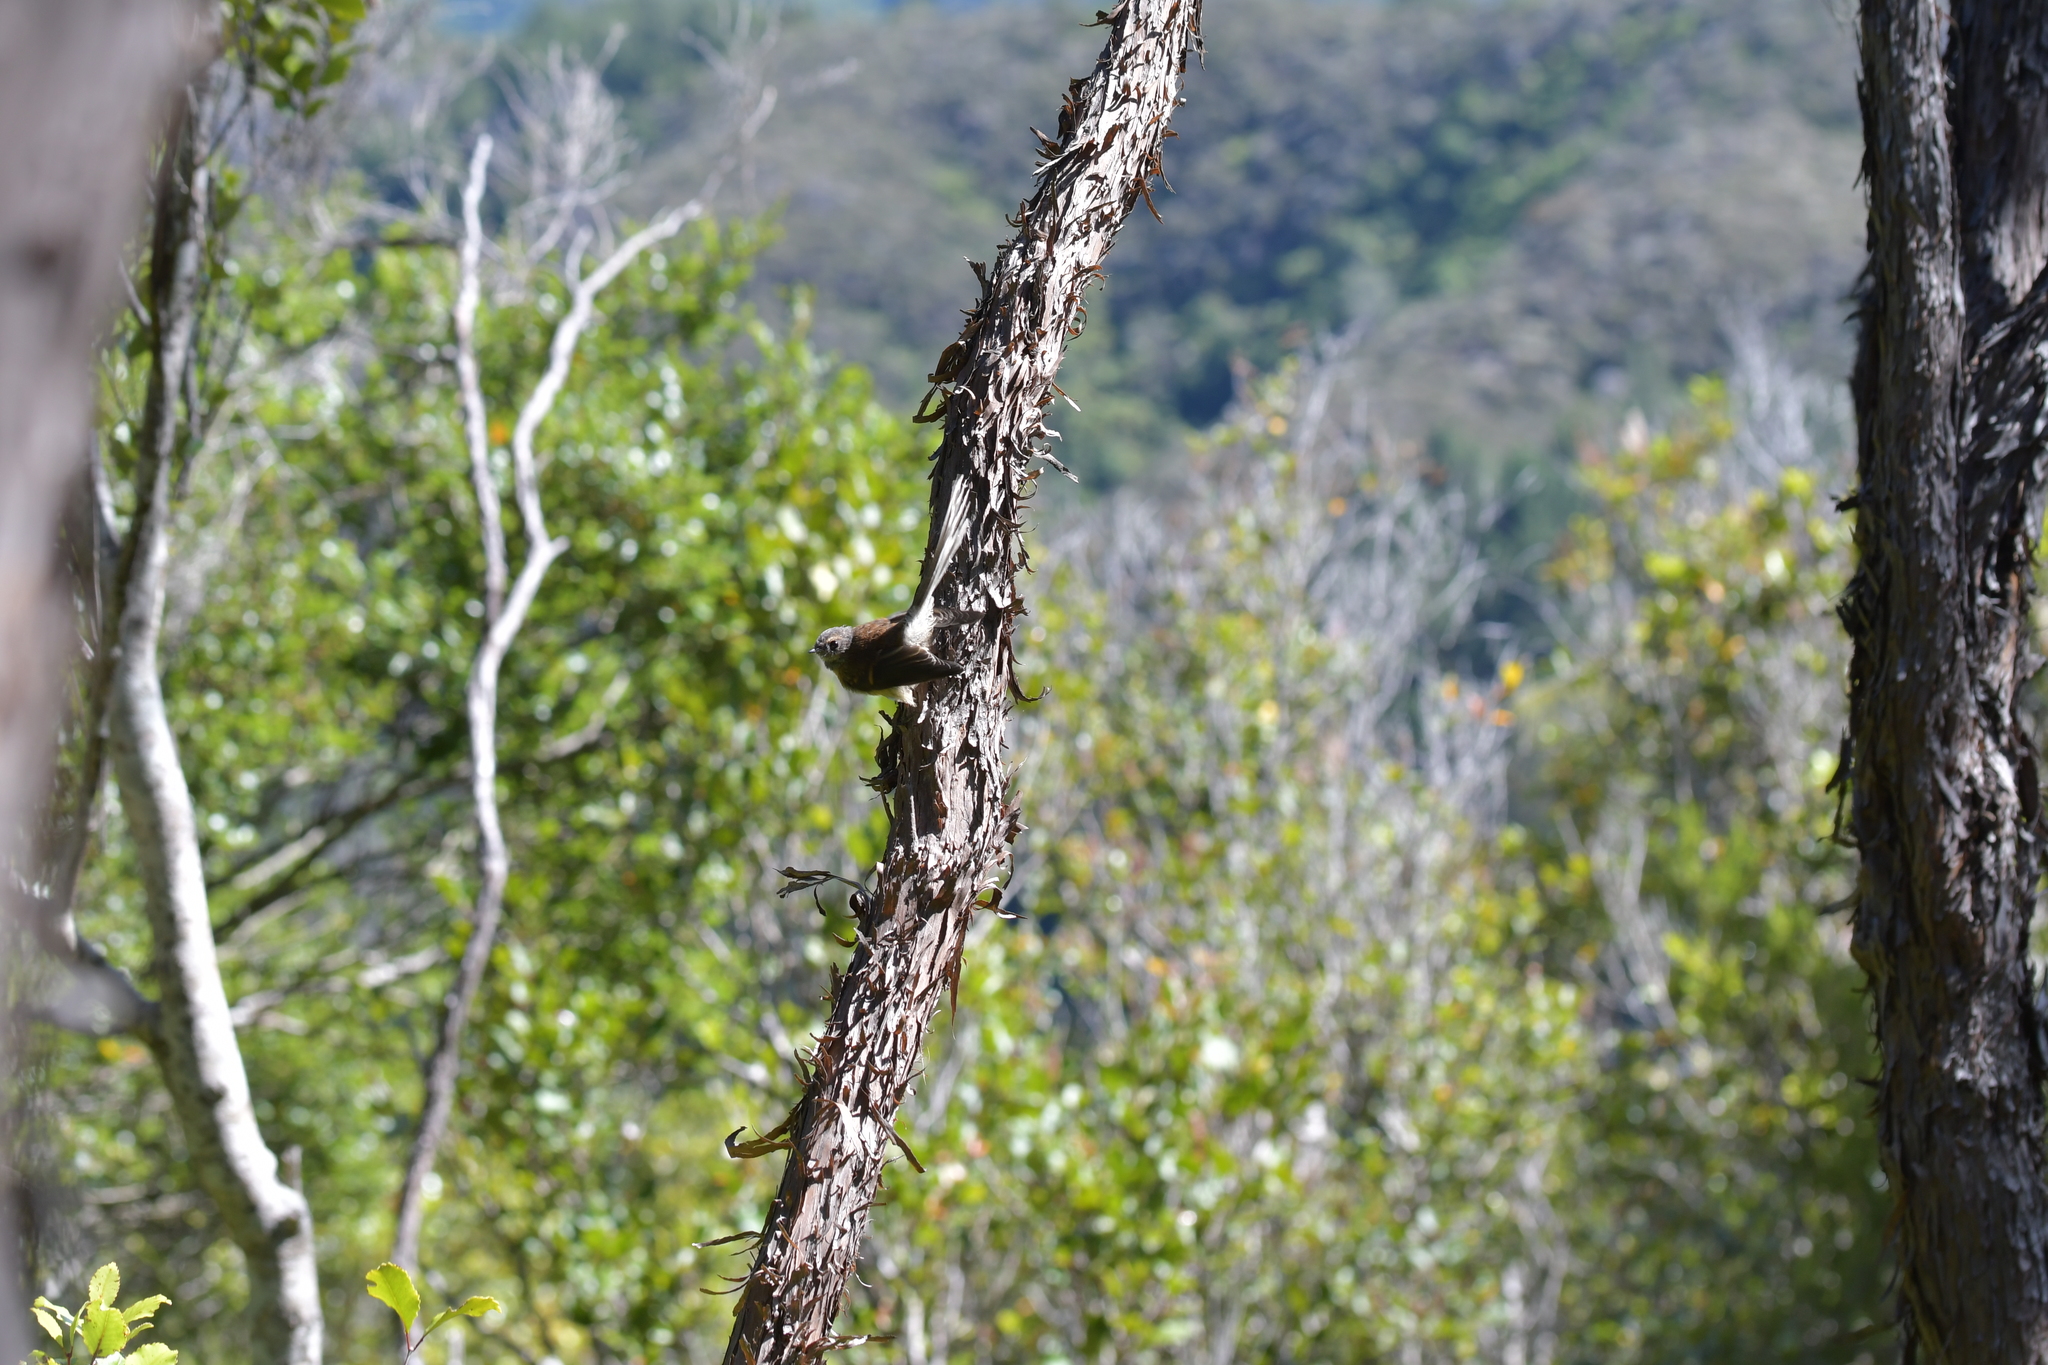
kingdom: Animalia
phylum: Chordata
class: Aves
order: Passeriformes
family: Rhipiduridae
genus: Rhipidura
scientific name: Rhipidura fuliginosa
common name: New zealand fantail
